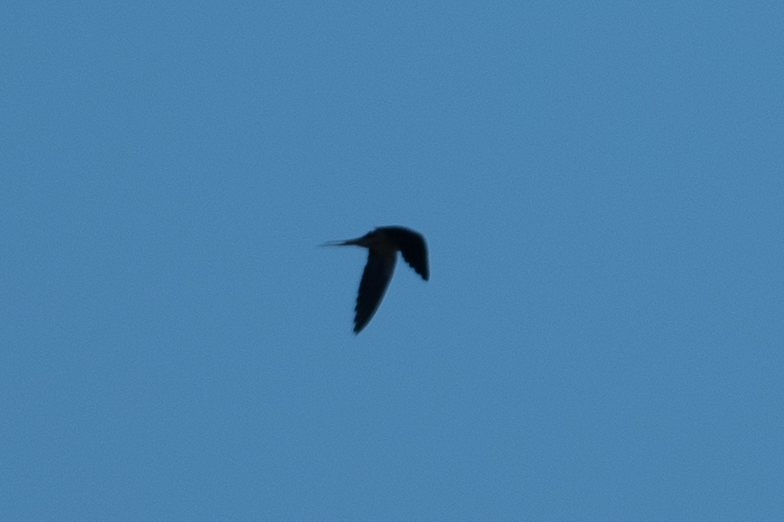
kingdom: Animalia
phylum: Chordata
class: Aves
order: Passeriformes
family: Hirundinidae
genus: Hirundo
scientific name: Hirundo rustica
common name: Barn swallow
